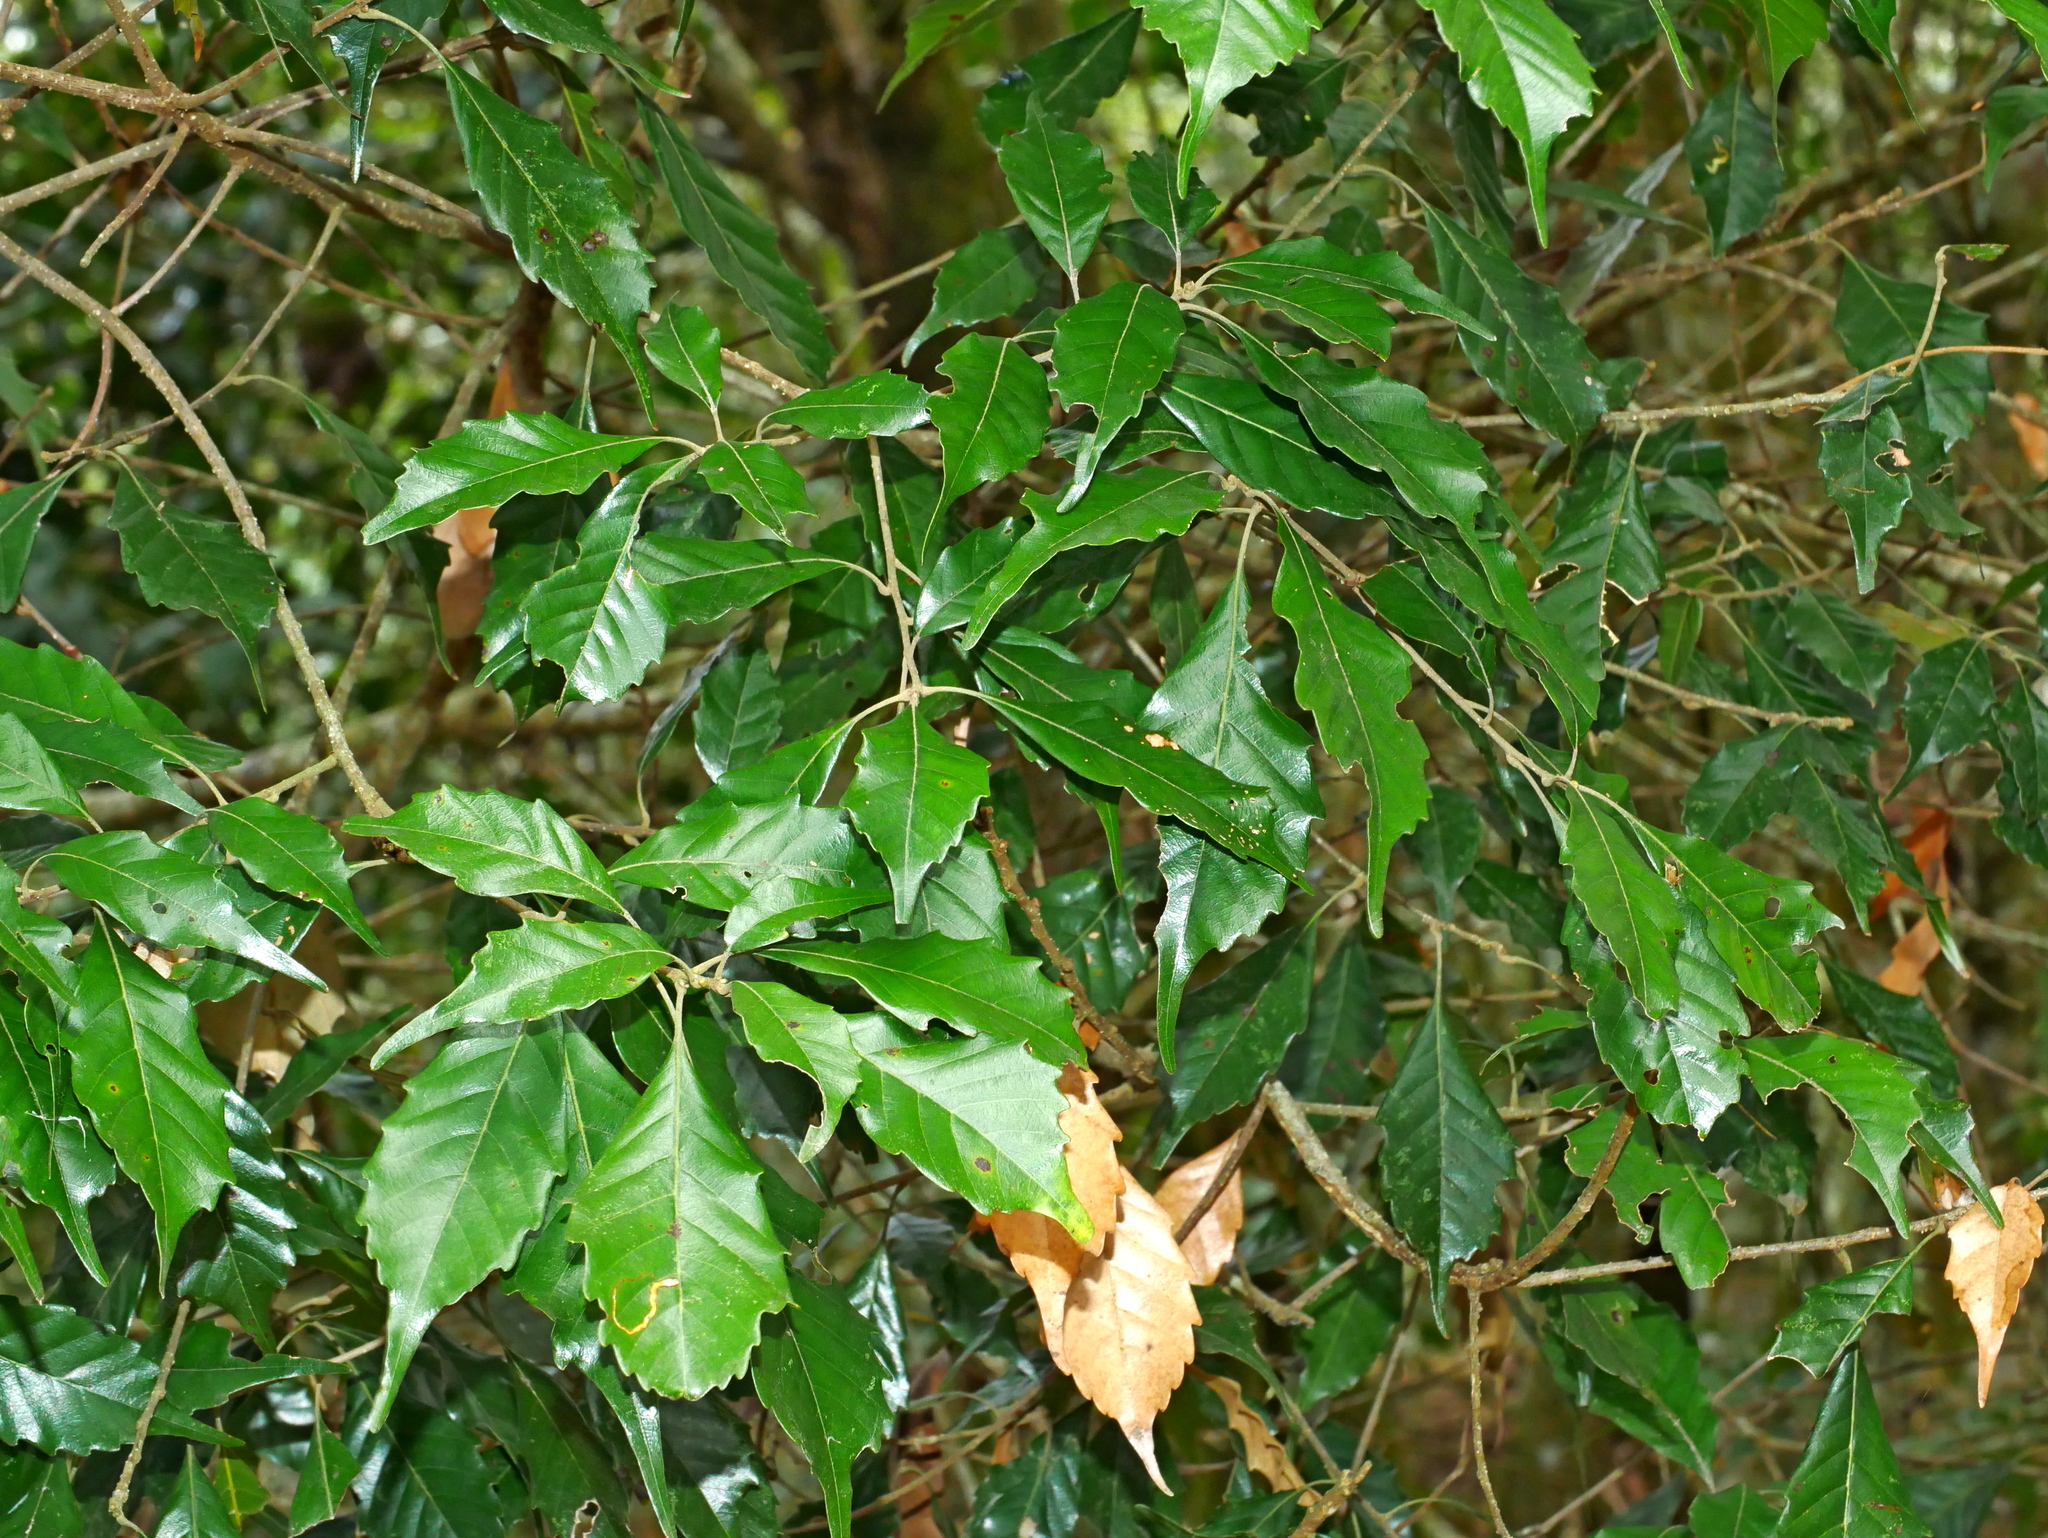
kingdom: Plantae
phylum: Tracheophyta
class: Magnoliopsida
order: Fagales
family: Fagaceae
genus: Lithocarpus
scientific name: Lithocarpus konishii
